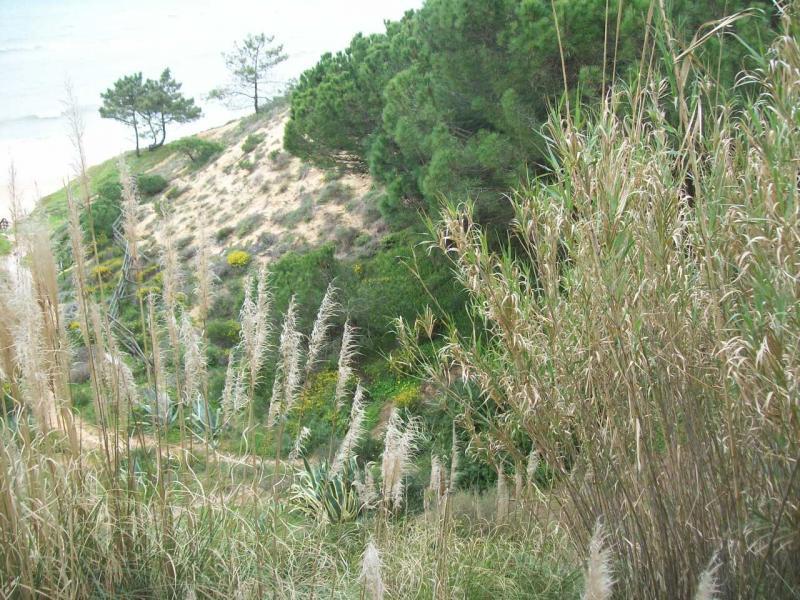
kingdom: Plantae
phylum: Tracheophyta
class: Liliopsida
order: Poales
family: Poaceae
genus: Arundo
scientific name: Arundo donax
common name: Giant reed
